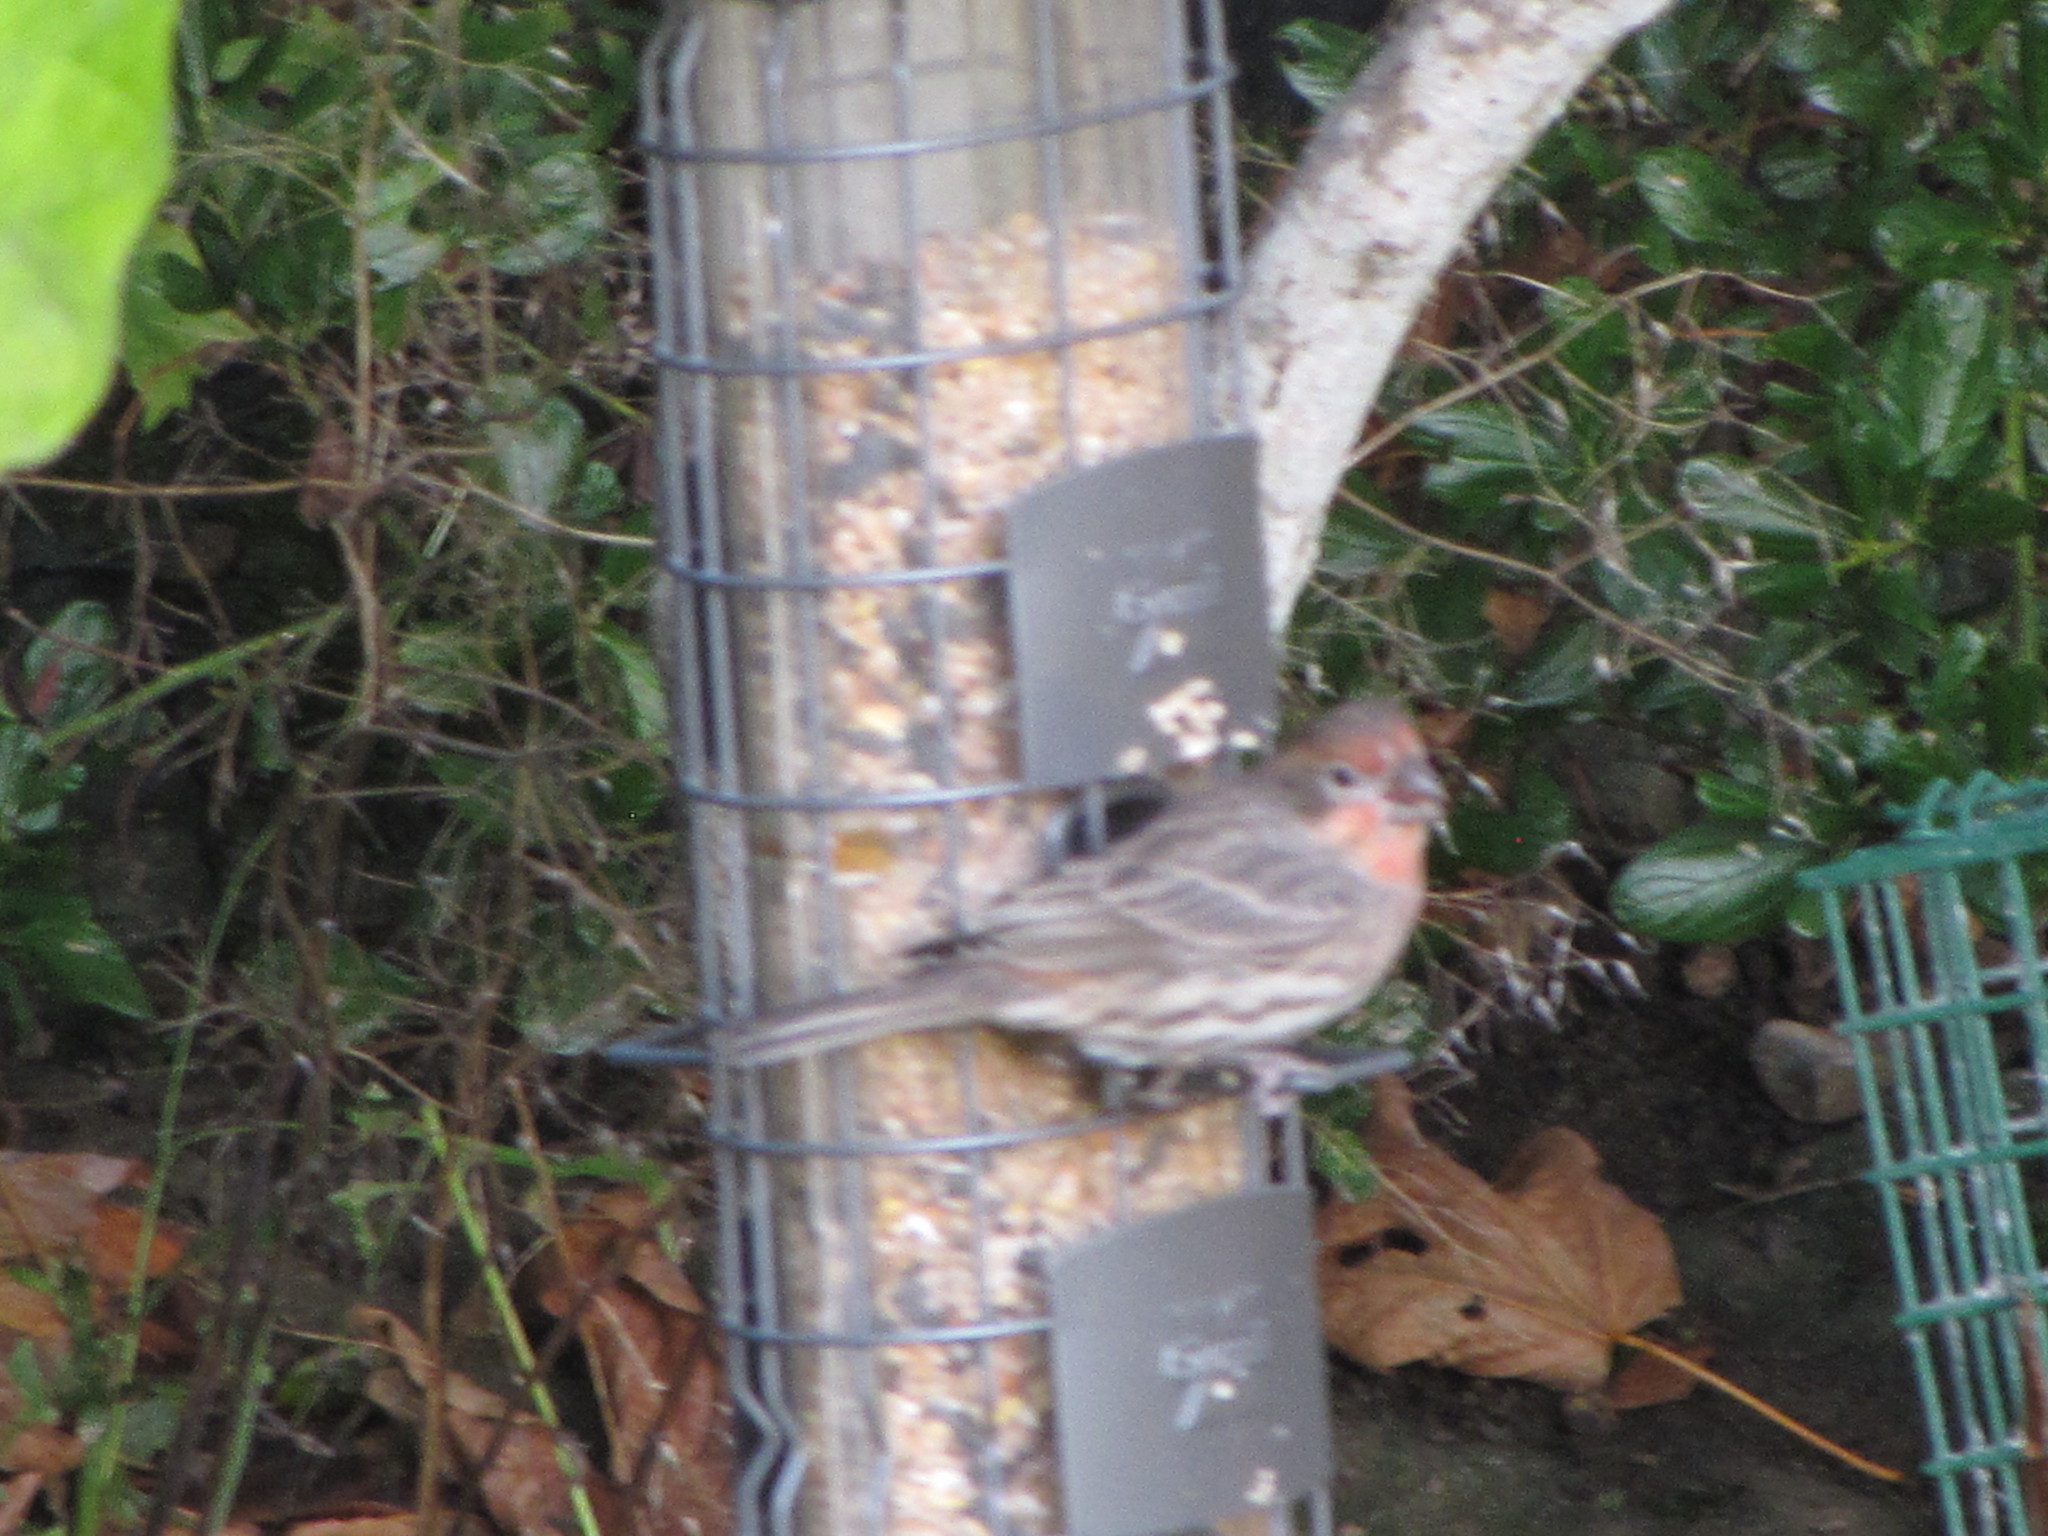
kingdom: Animalia
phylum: Chordata
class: Aves
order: Passeriformes
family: Fringillidae
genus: Haemorhous
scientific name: Haemorhous mexicanus
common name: House finch
